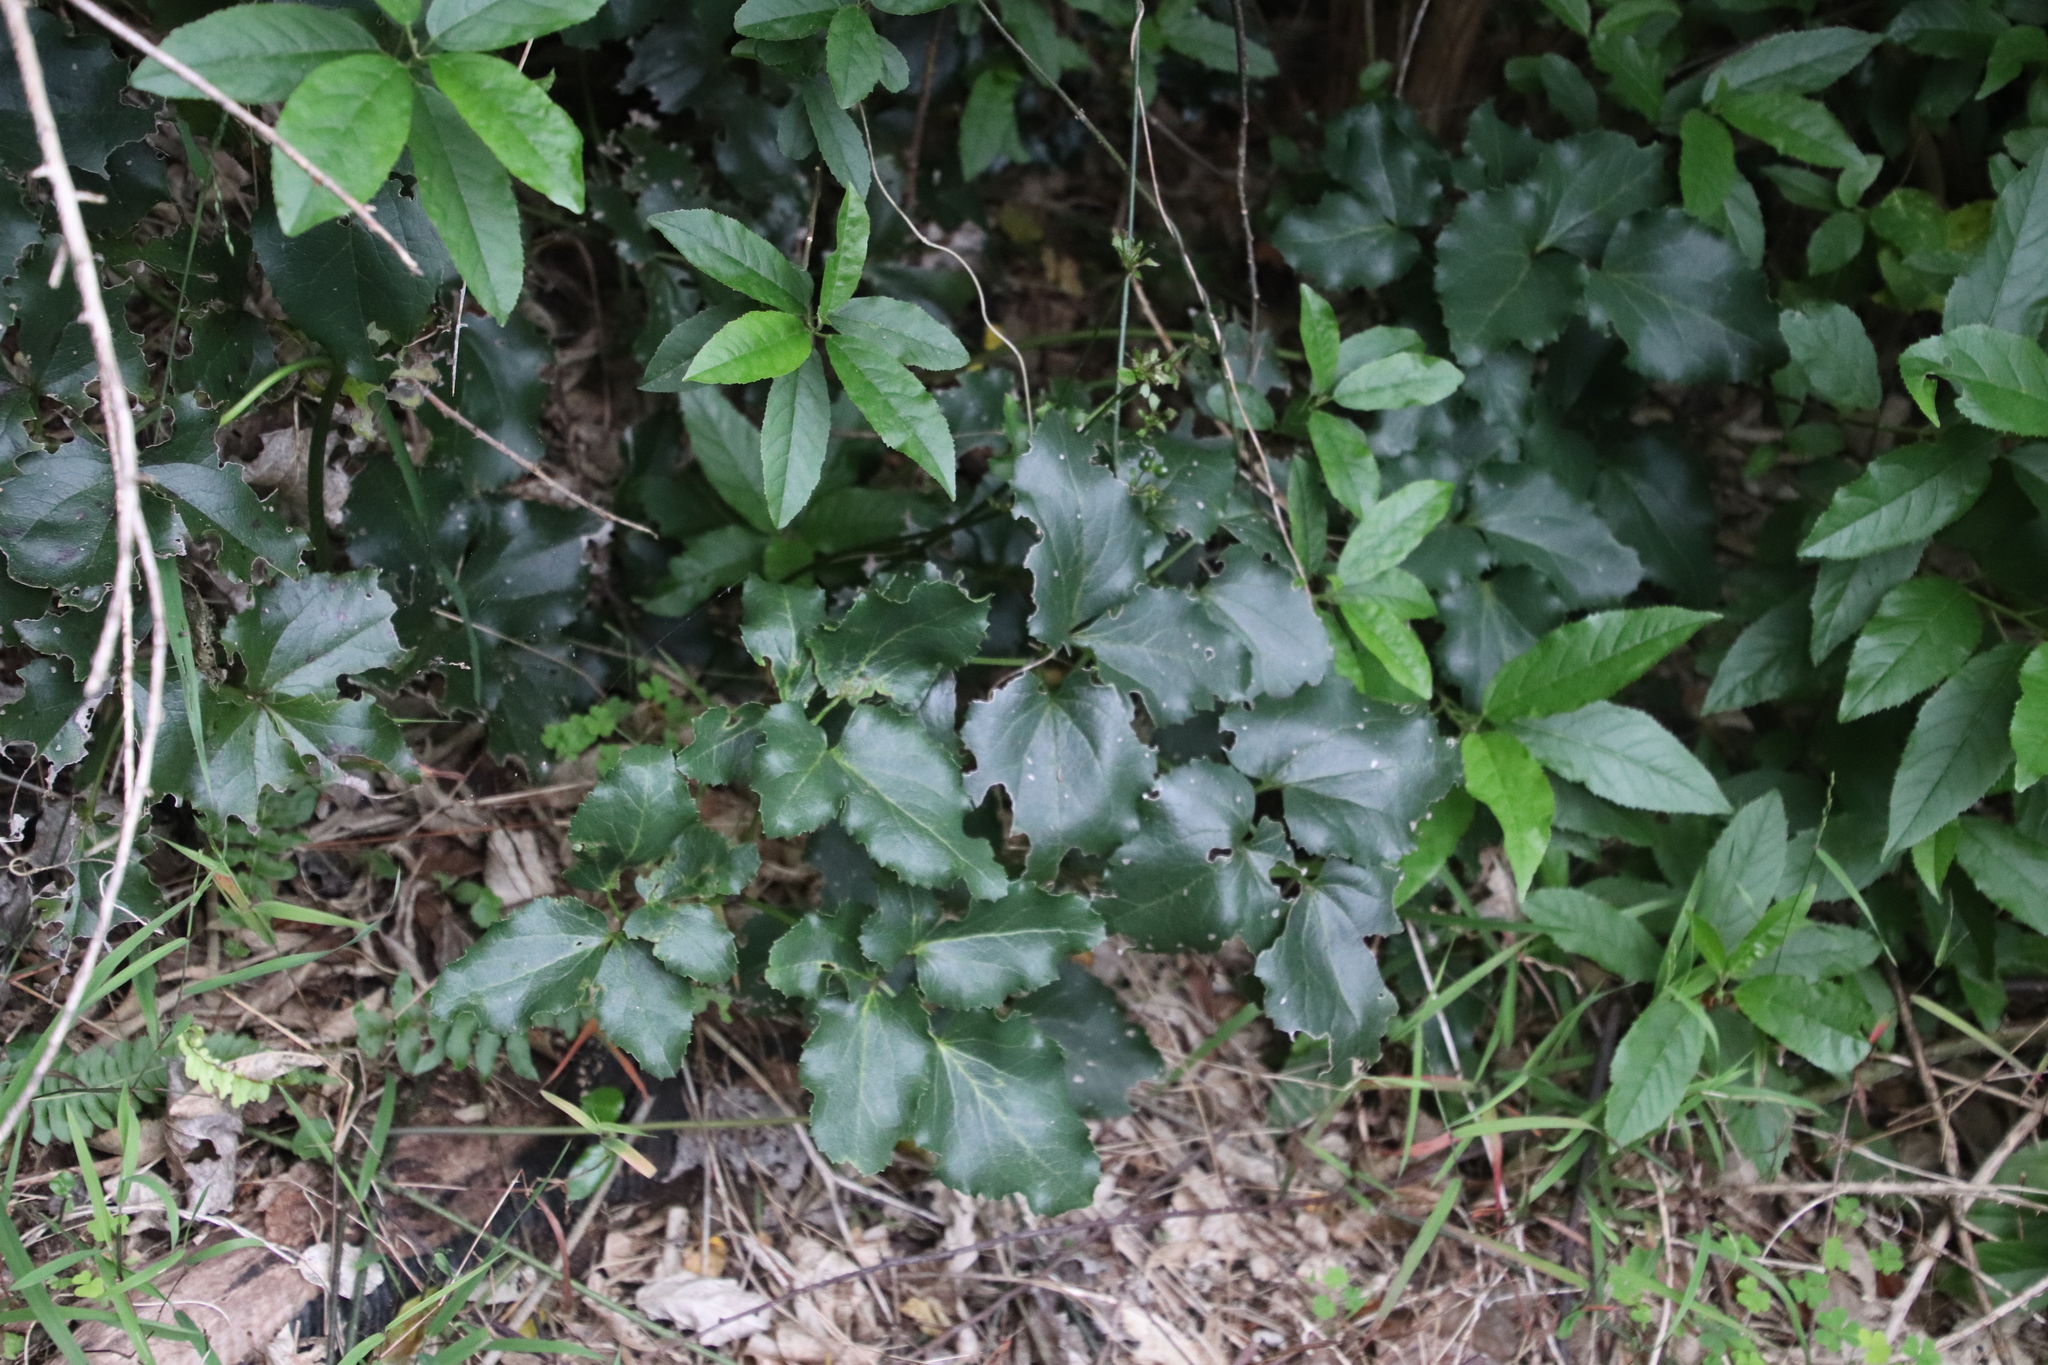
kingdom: Plantae
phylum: Tracheophyta
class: Magnoliopsida
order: Ranunculales
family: Ranunculaceae
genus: Knowltonia
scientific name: Knowltonia vesicatoria
